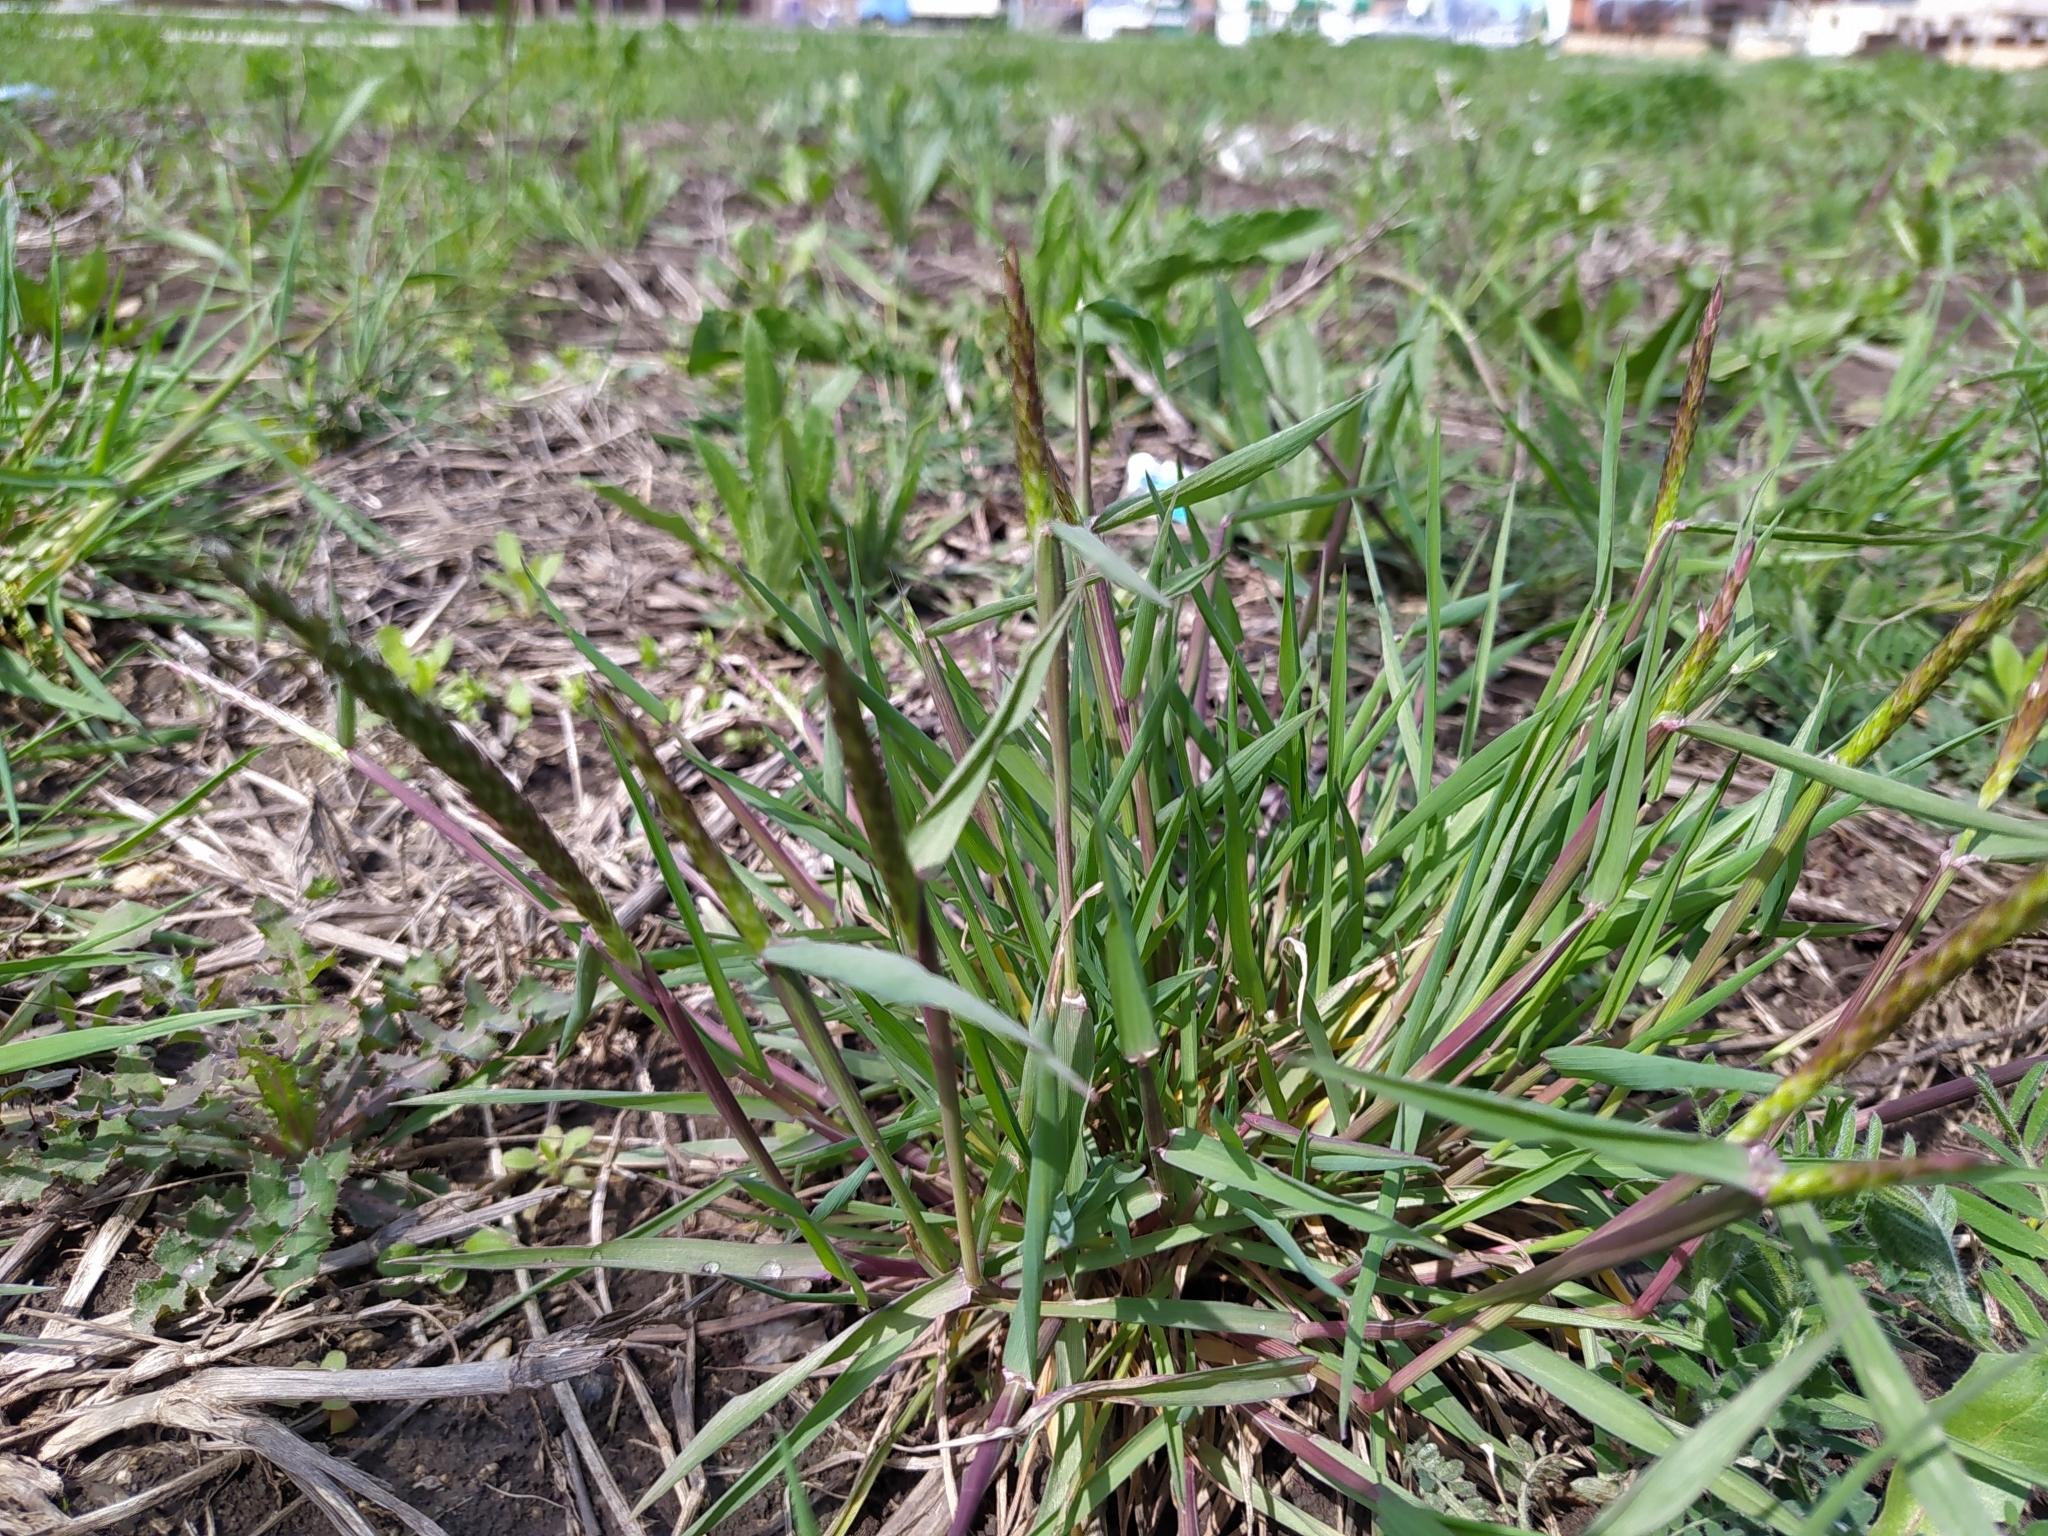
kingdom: Plantae
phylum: Tracheophyta
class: Liliopsida
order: Poales
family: Poaceae
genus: Alopecurus
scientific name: Alopecurus myosuroides
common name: Black-grass
